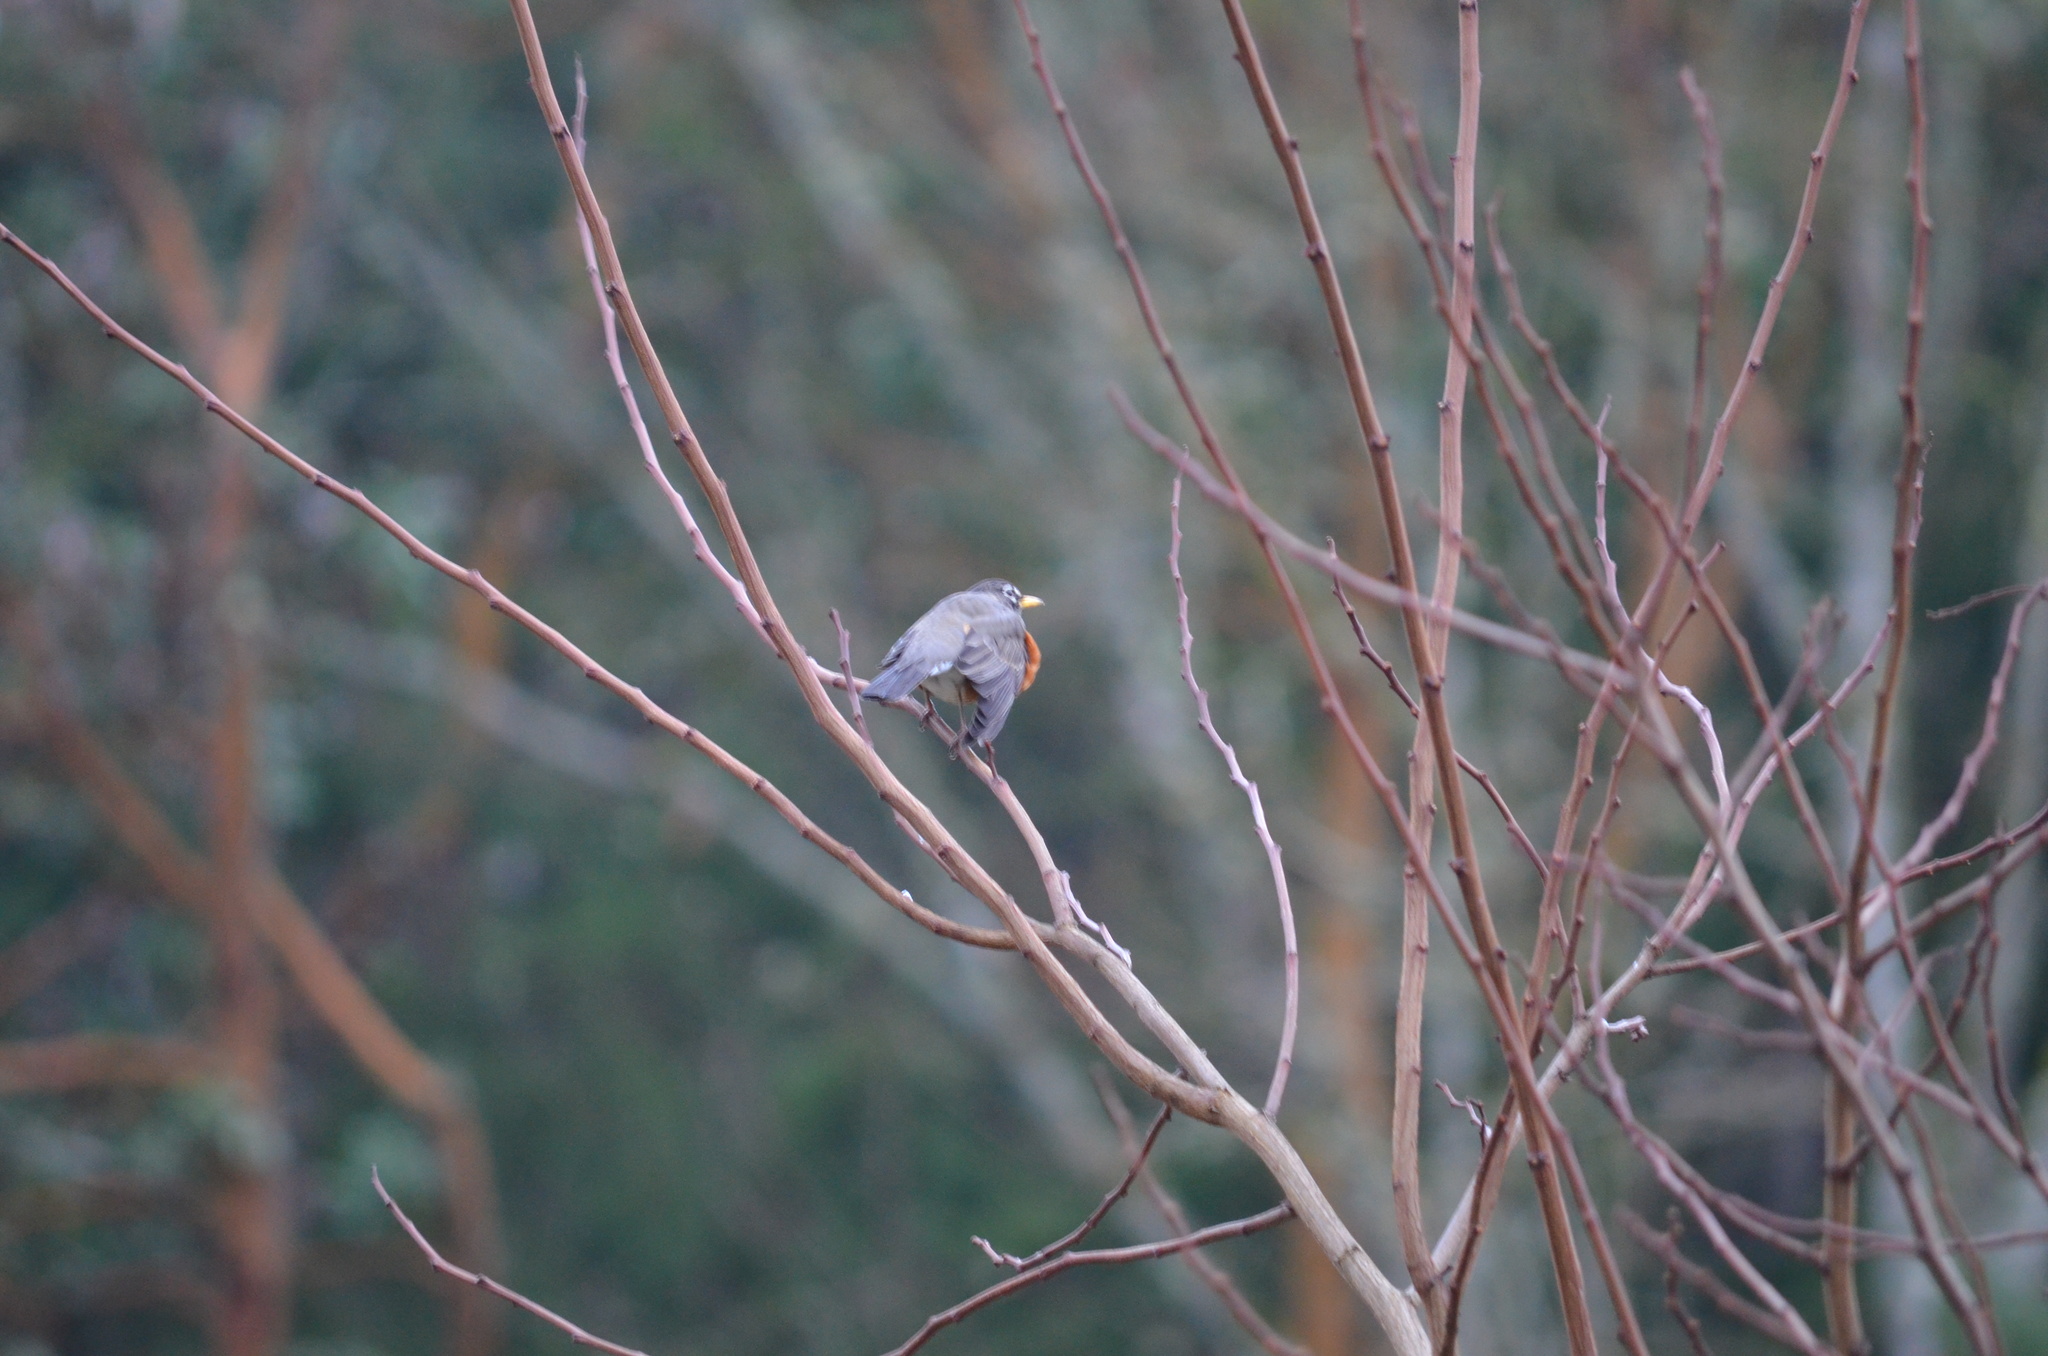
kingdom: Animalia
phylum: Chordata
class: Aves
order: Passeriformes
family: Turdidae
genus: Turdus
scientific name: Turdus migratorius
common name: American robin
